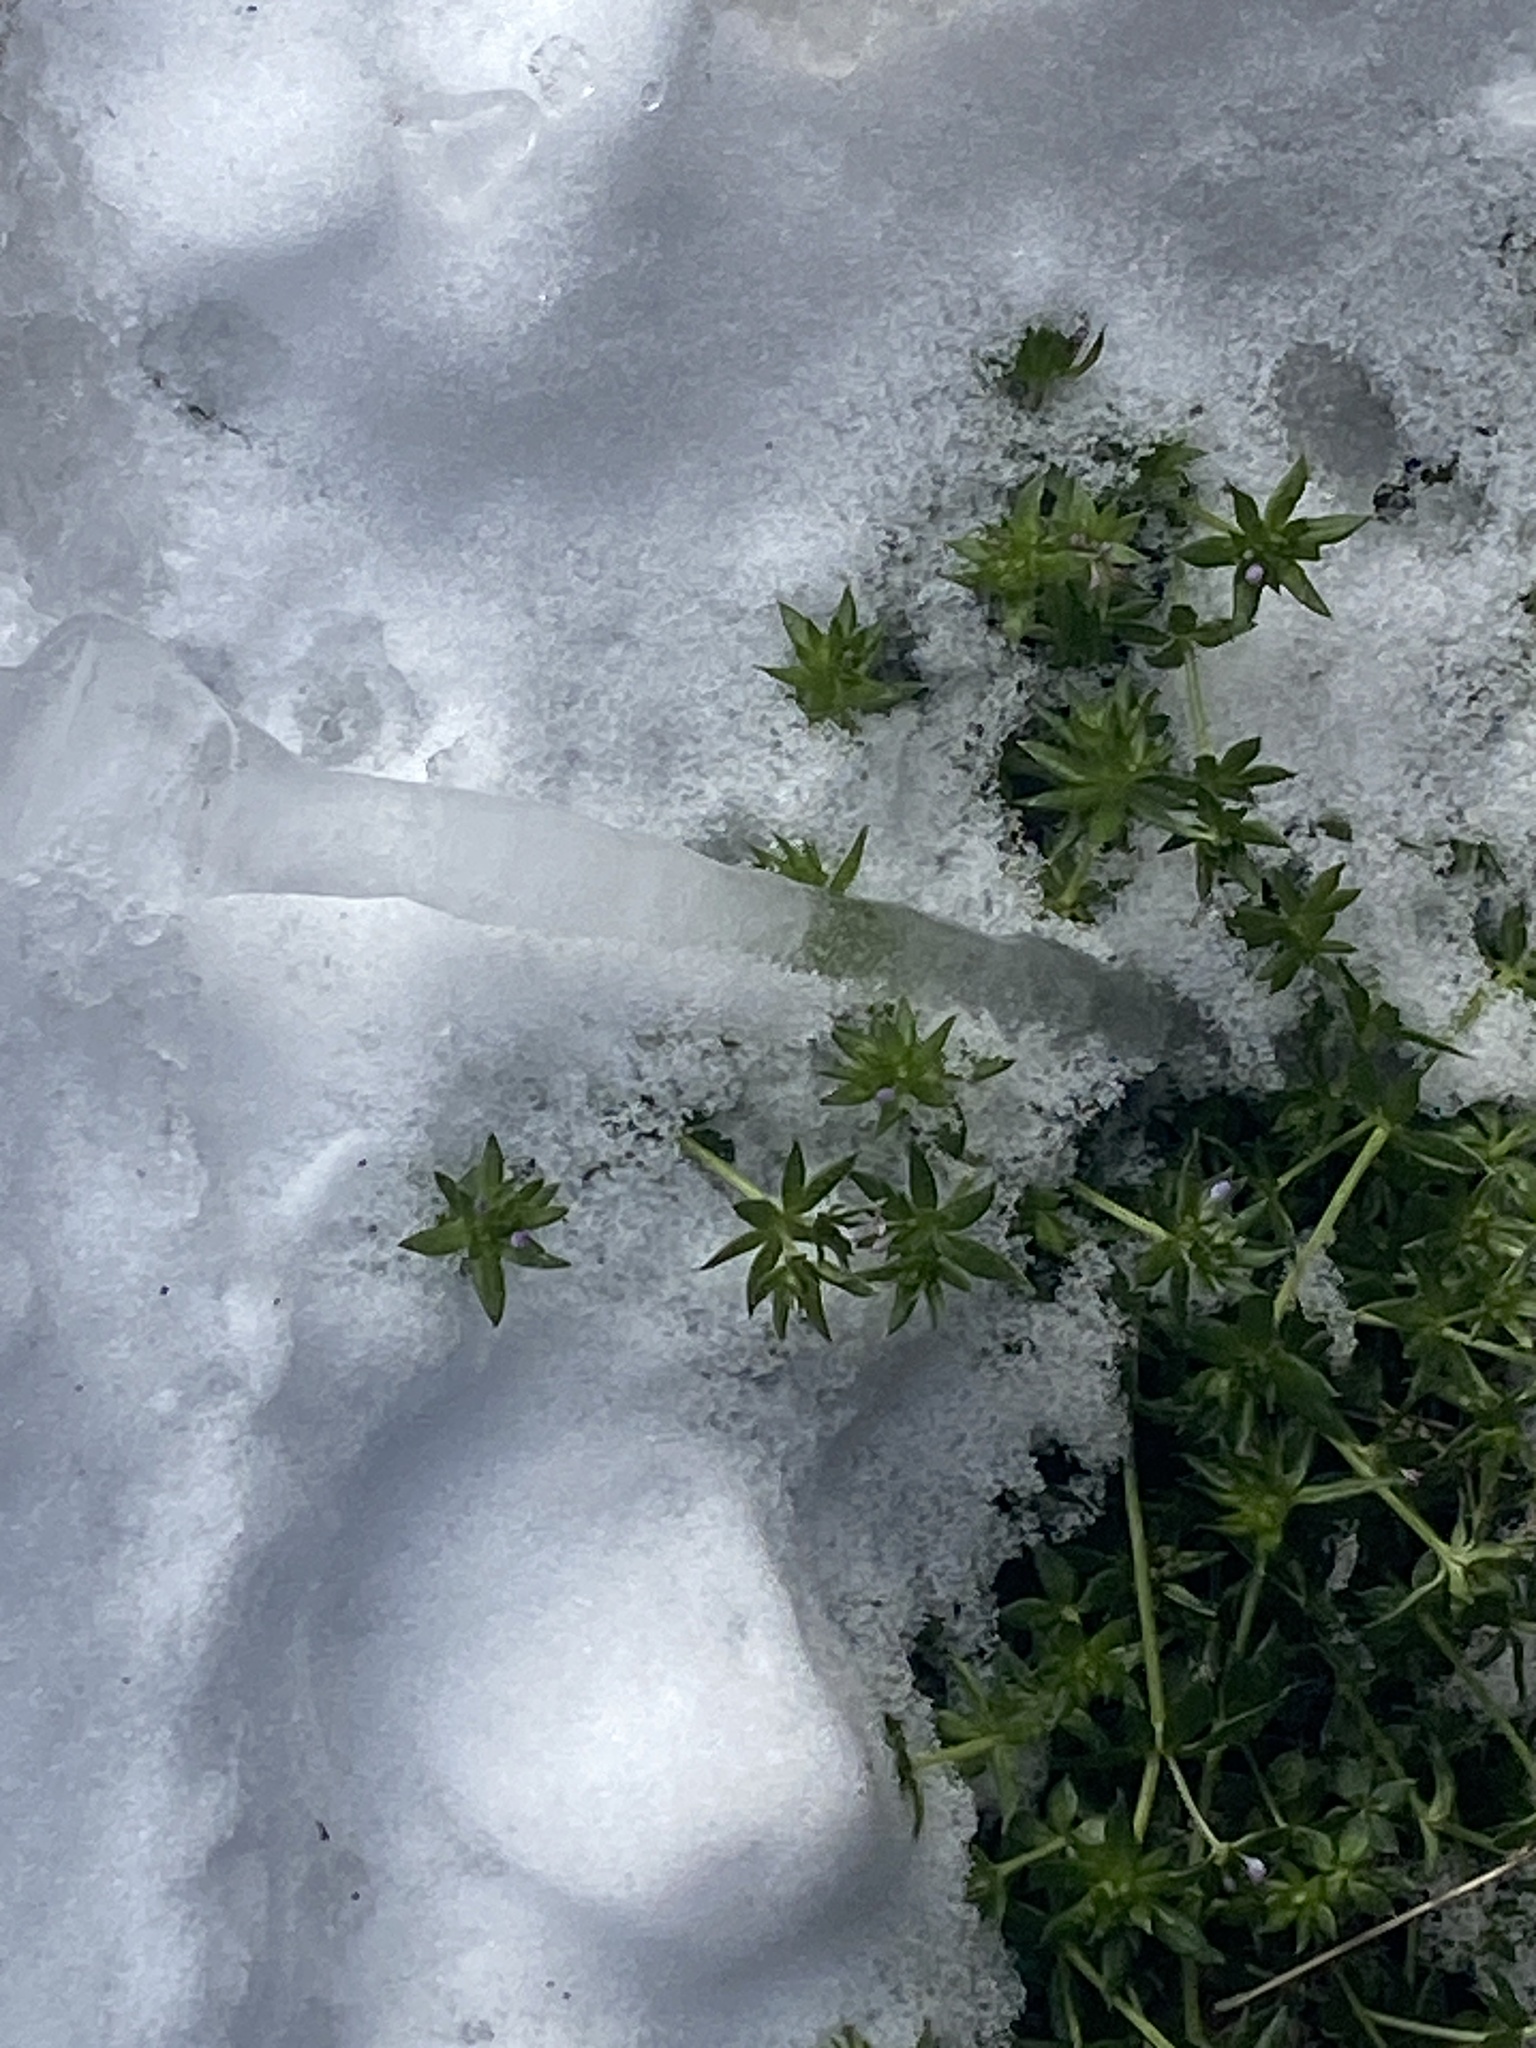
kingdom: Plantae
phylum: Tracheophyta
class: Magnoliopsida
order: Gentianales
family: Rubiaceae
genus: Sherardia
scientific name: Sherardia arvensis
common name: Field madder
